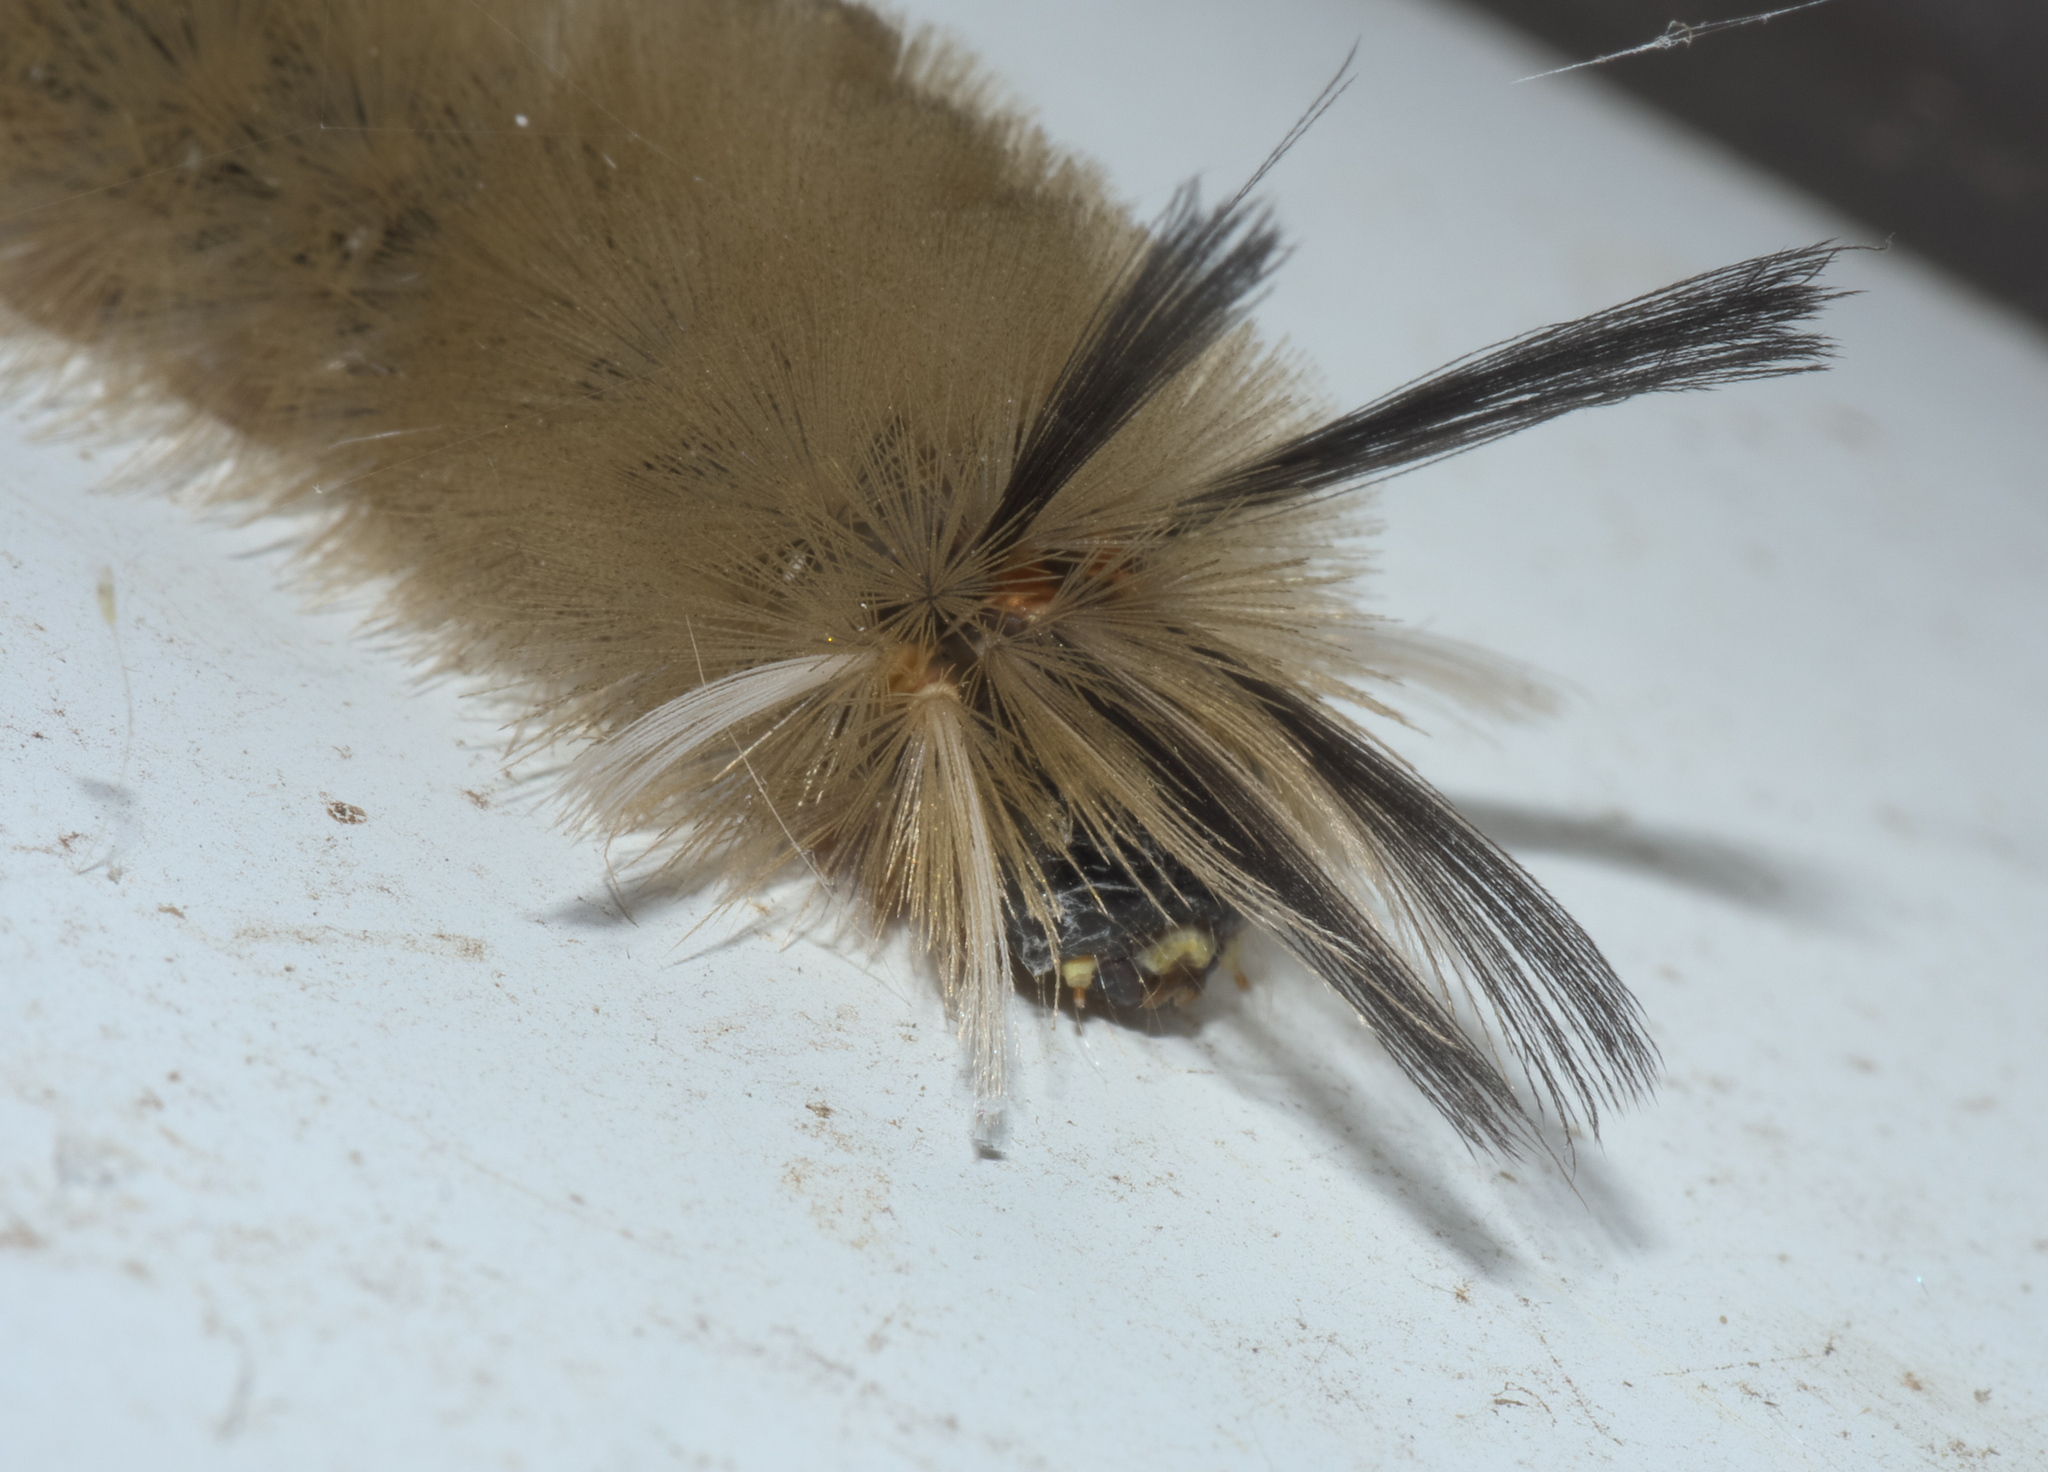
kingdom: Animalia
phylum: Arthropoda
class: Insecta
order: Lepidoptera
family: Erebidae
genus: Halysidota
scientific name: Halysidota tessellaris
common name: Banded tussock moth
